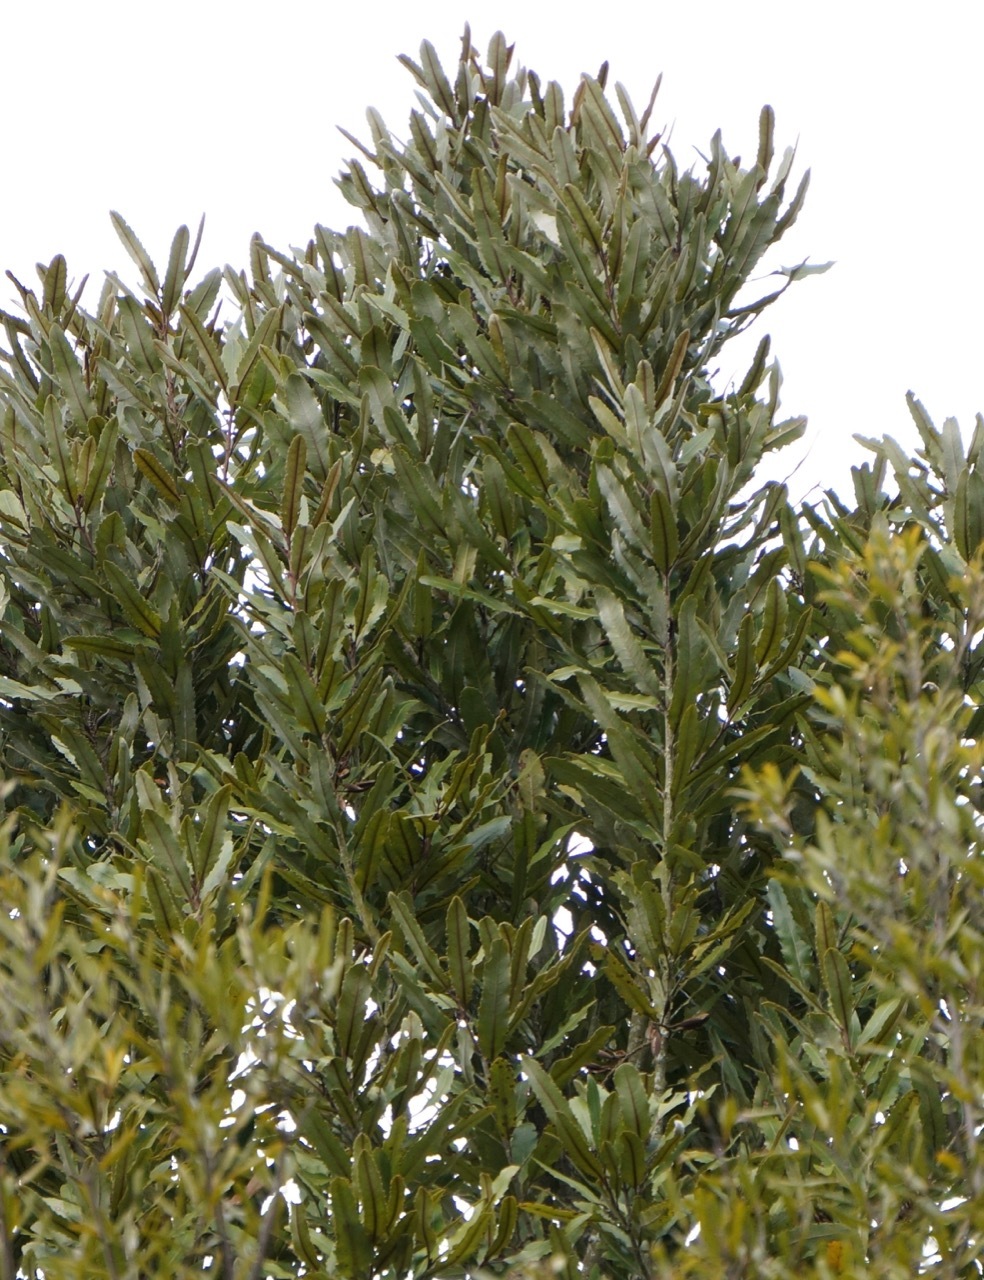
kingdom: Plantae
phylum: Tracheophyta
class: Magnoliopsida
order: Proteales
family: Proteaceae
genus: Knightia
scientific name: Knightia excelsa
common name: New zealand-honeysuckle
